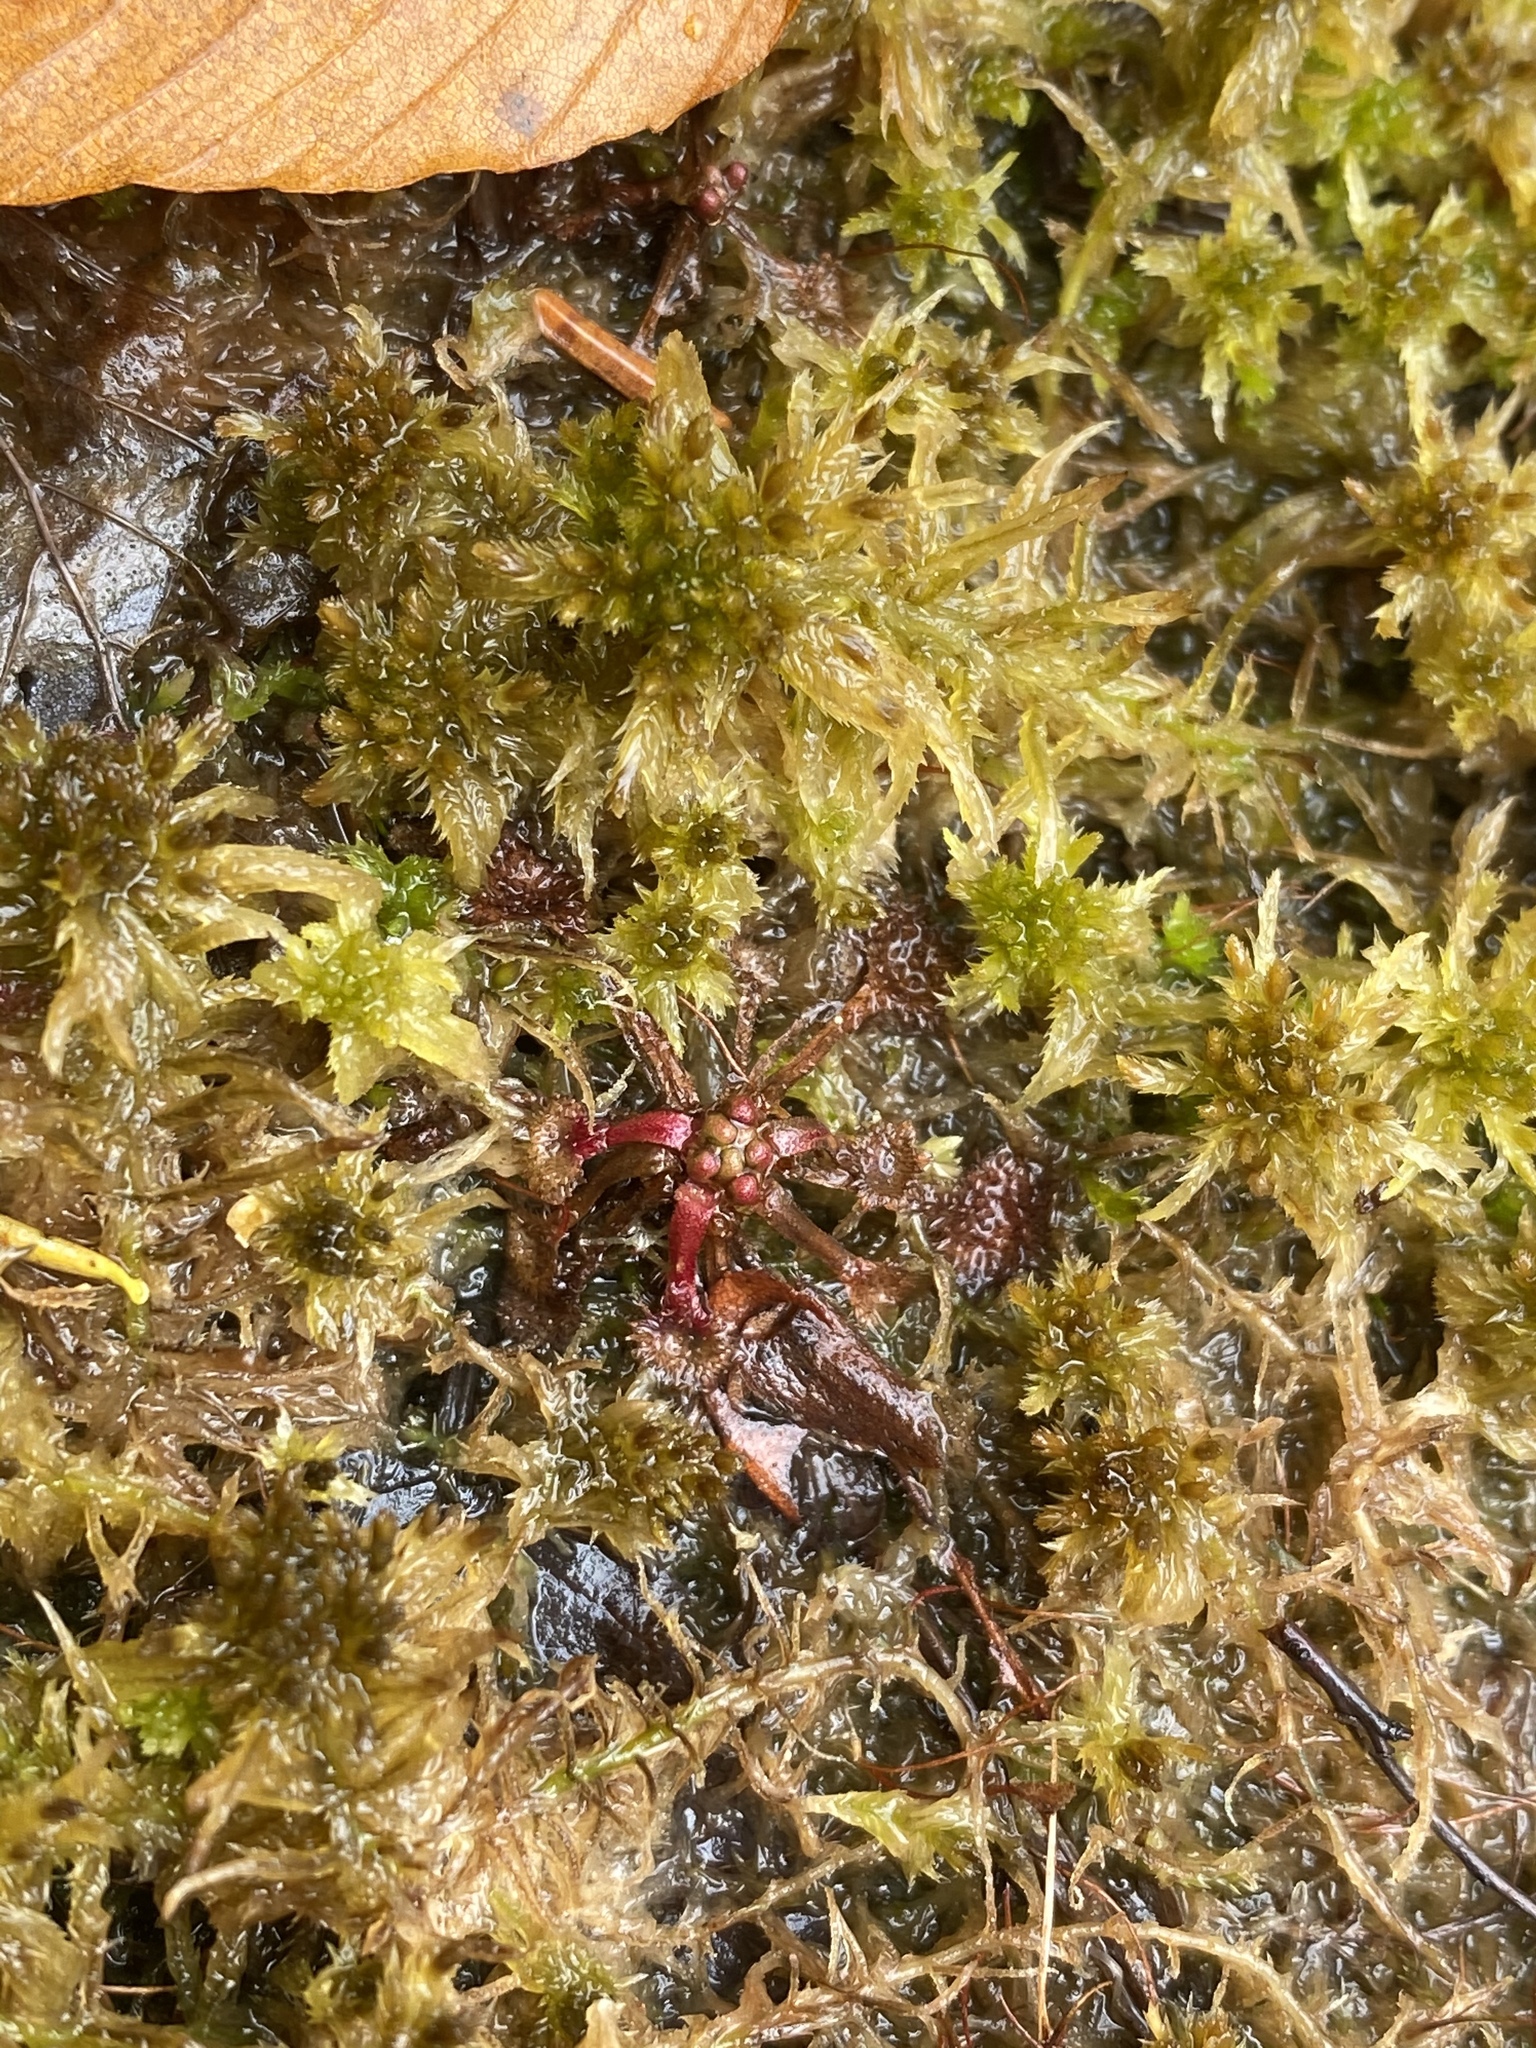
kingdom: Plantae
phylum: Tracheophyta
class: Magnoliopsida
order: Caryophyllales
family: Droseraceae
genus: Drosera
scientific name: Drosera rotundifolia
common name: Round-leaved sundew
